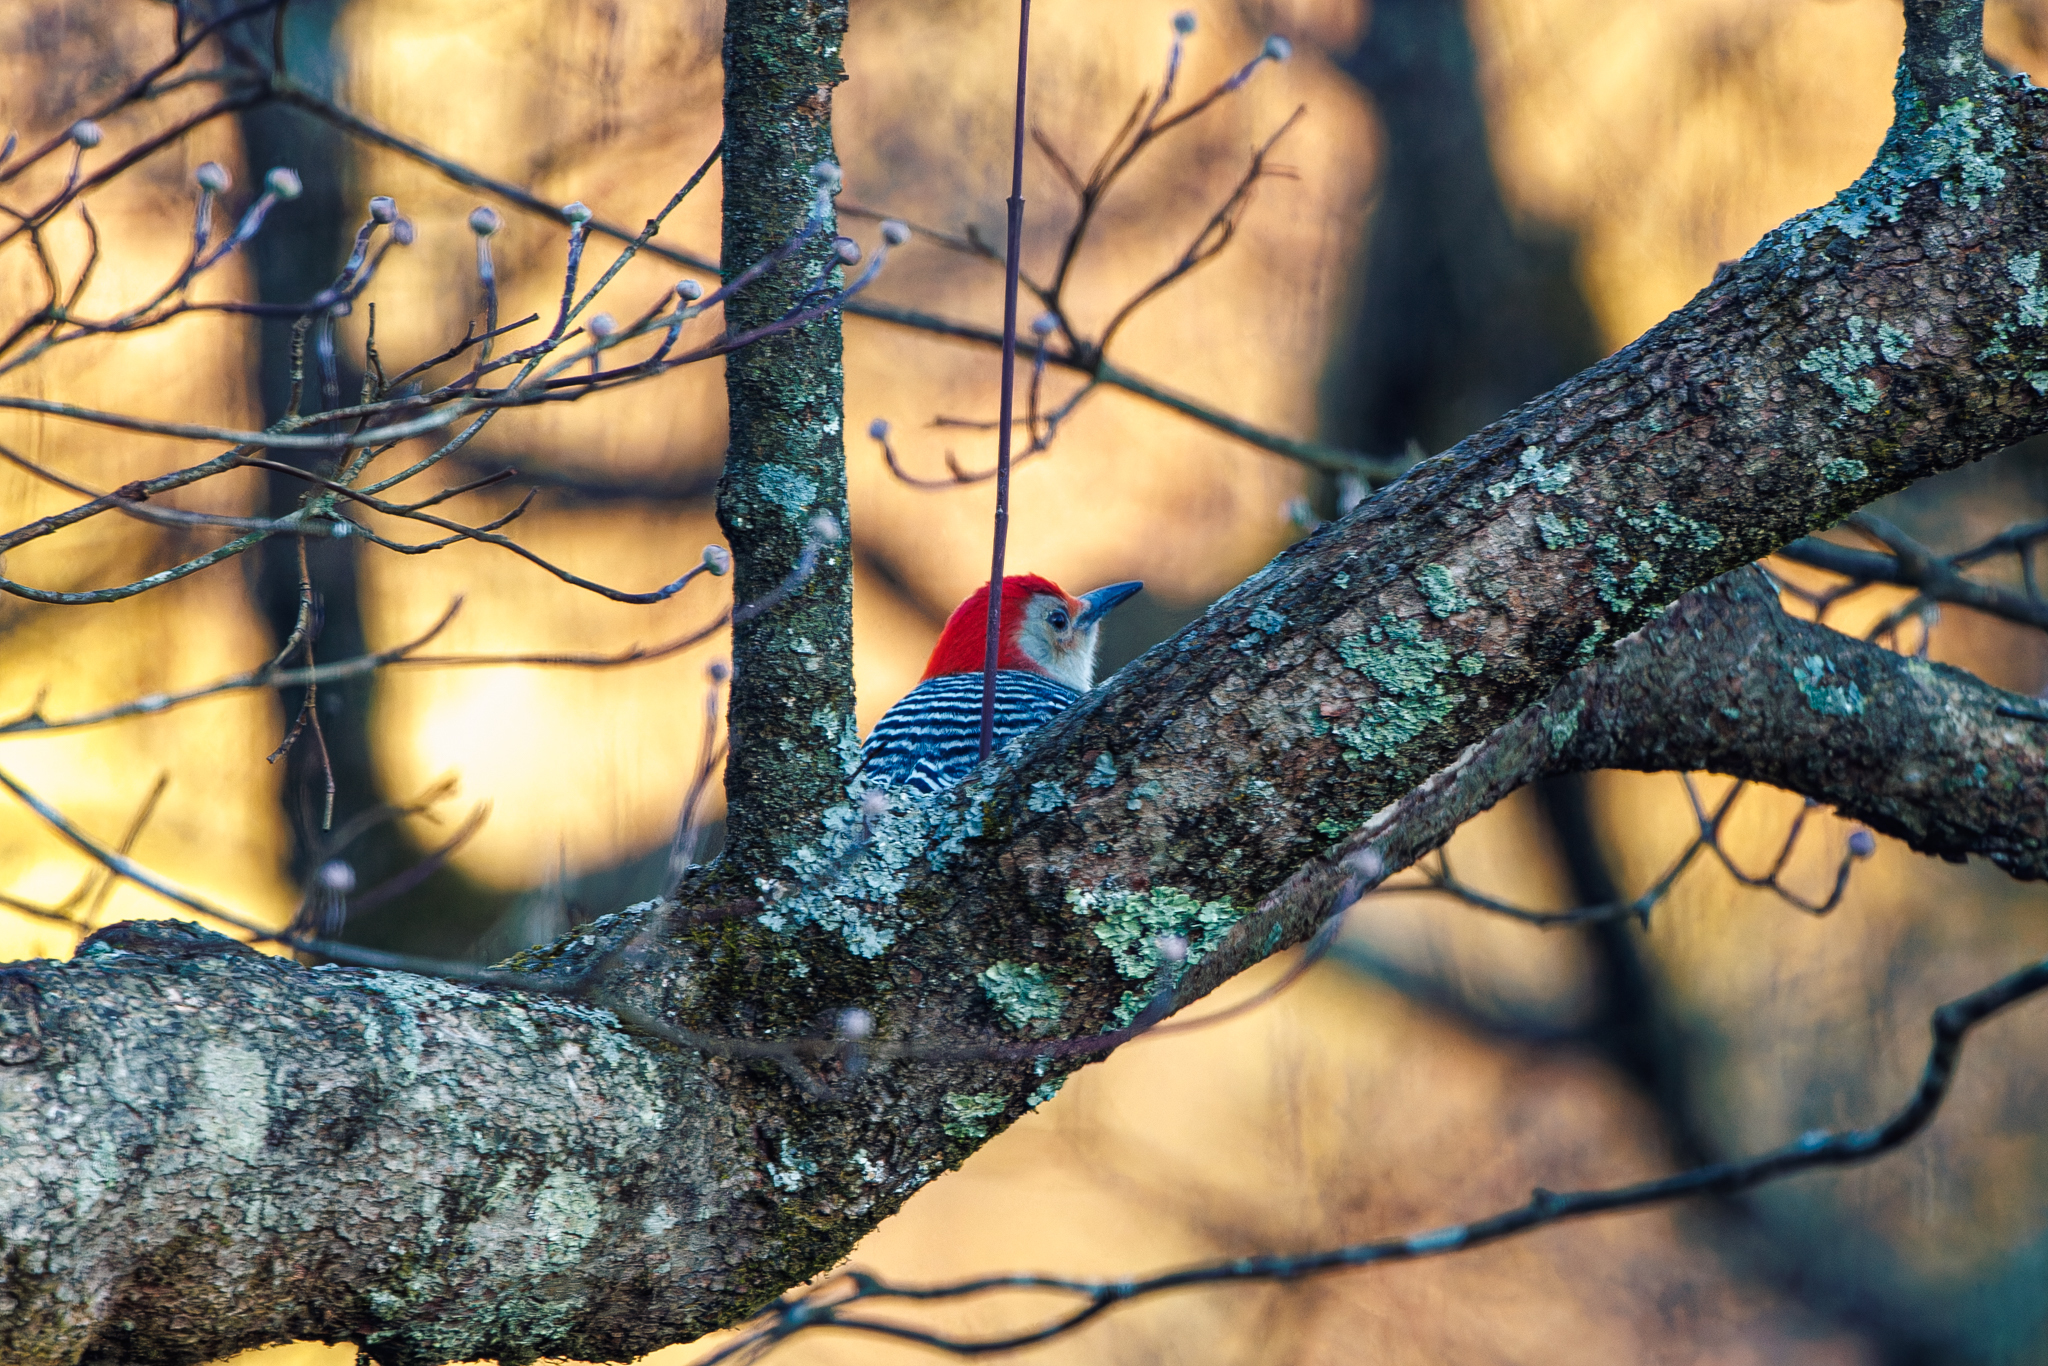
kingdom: Animalia
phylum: Chordata
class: Aves
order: Piciformes
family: Picidae
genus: Melanerpes
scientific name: Melanerpes carolinus
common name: Red-bellied woodpecker
